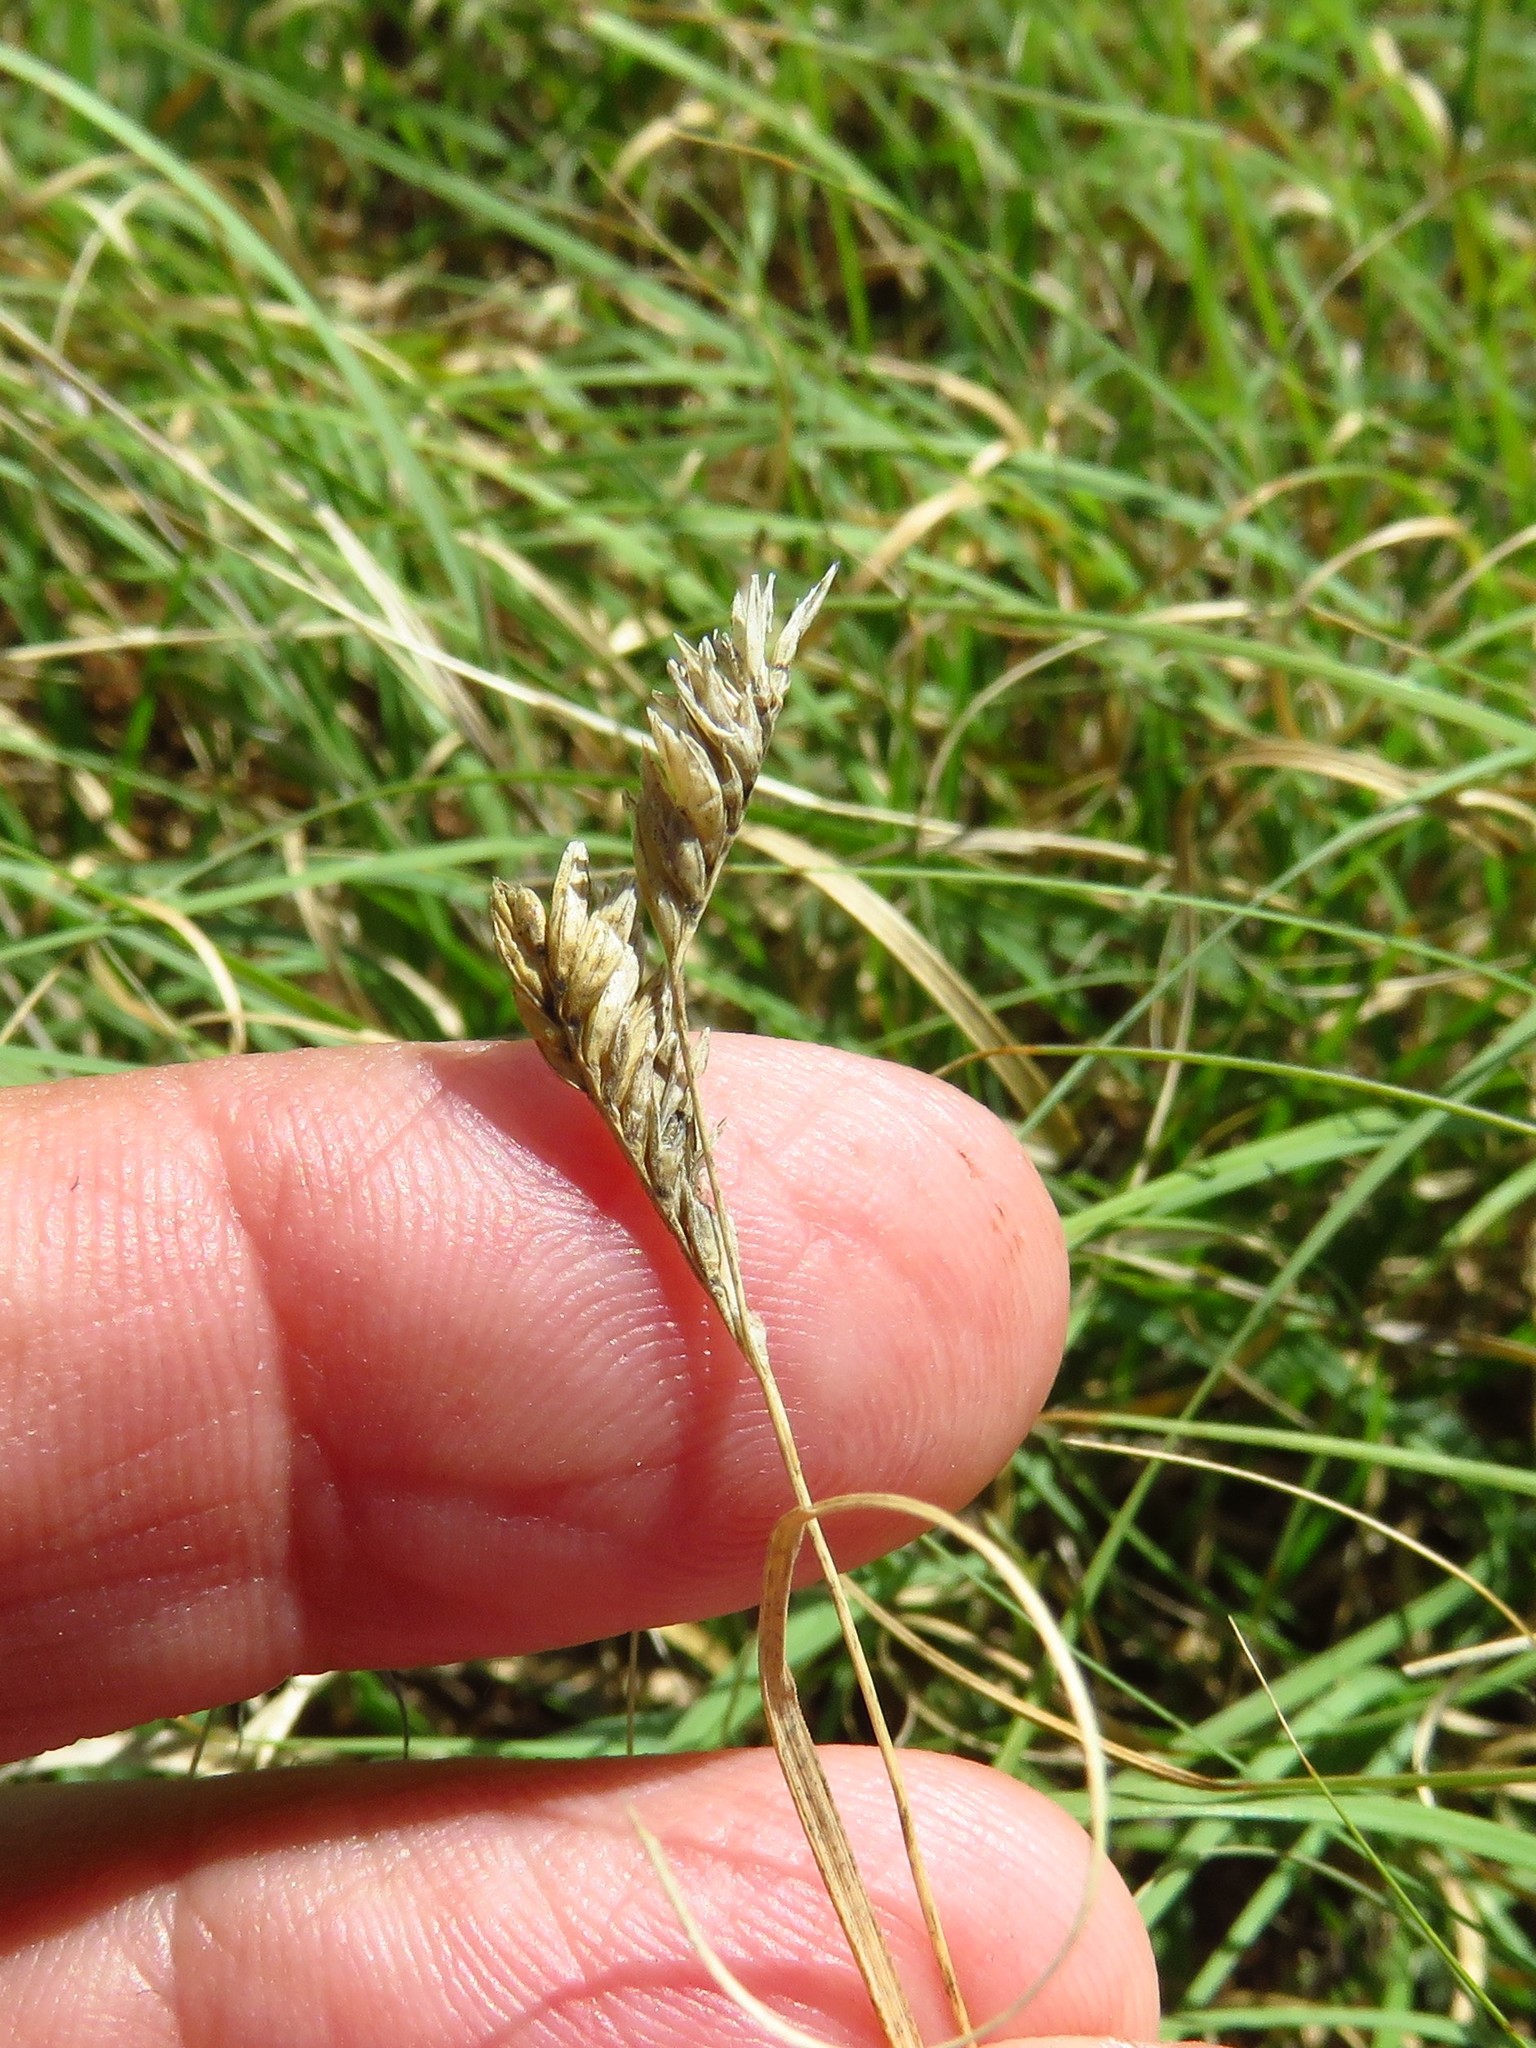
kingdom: Plantae
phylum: Tracheophyta
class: Liliopsida
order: Poales
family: Poaceae
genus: Bouteloua
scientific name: Bouteloua dactyloides
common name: Buffalo grass
